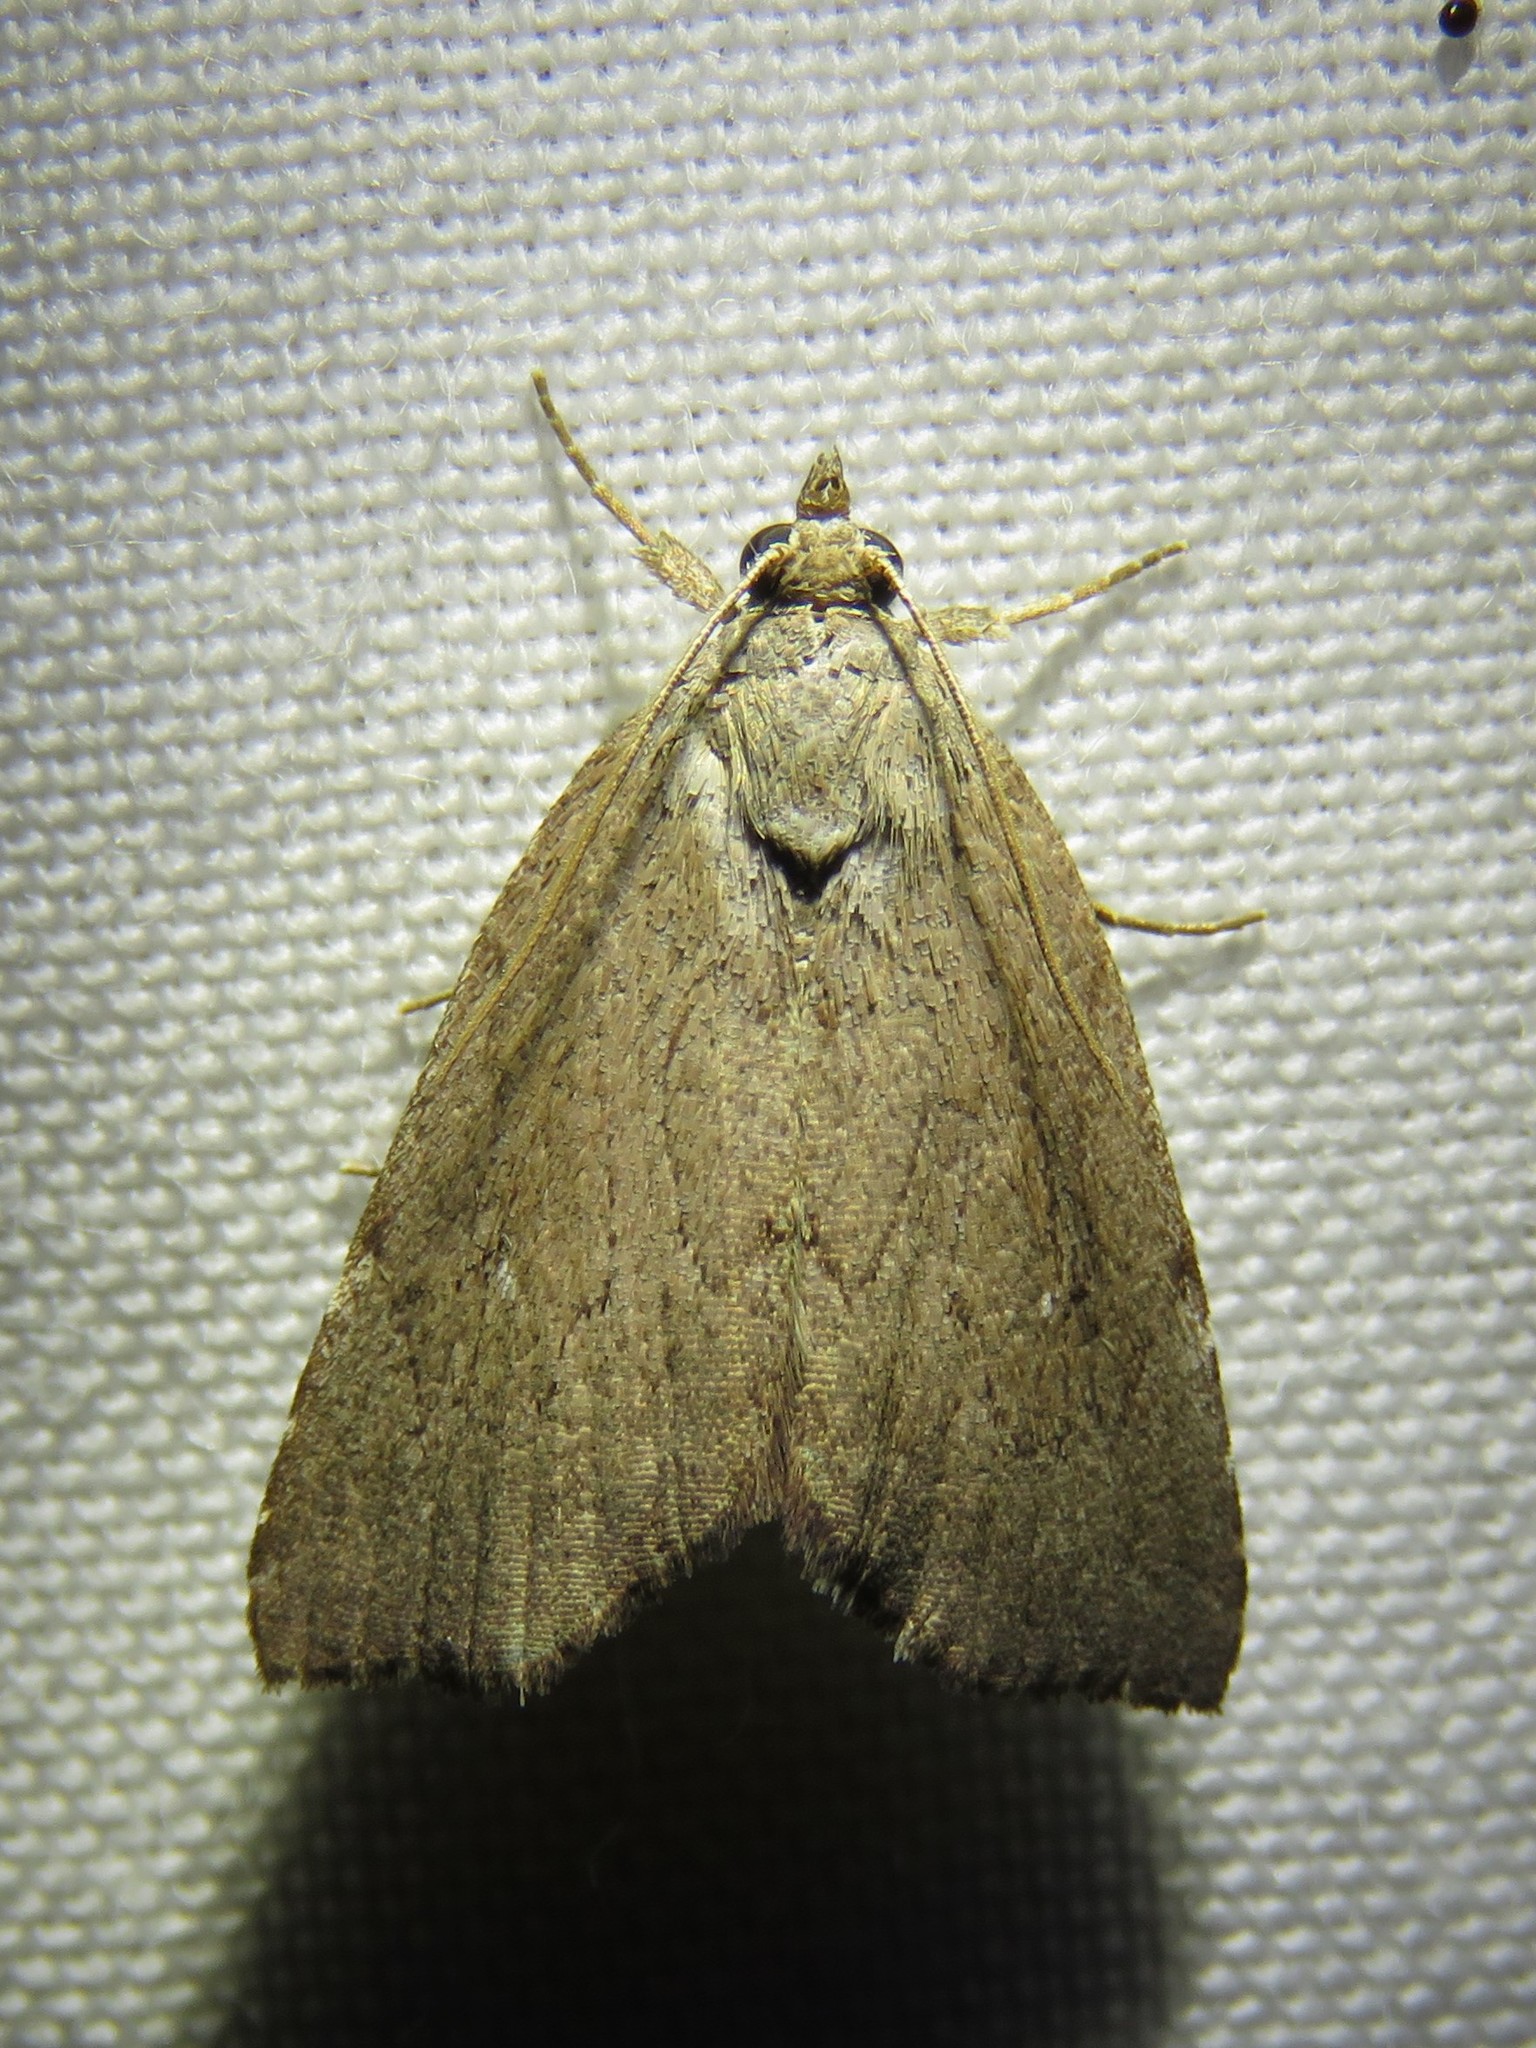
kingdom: Animalia
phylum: Arthropoda
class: Insecta
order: Lepidoptera
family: Erebidae
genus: Cutina
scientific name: Cutina albopunctella
